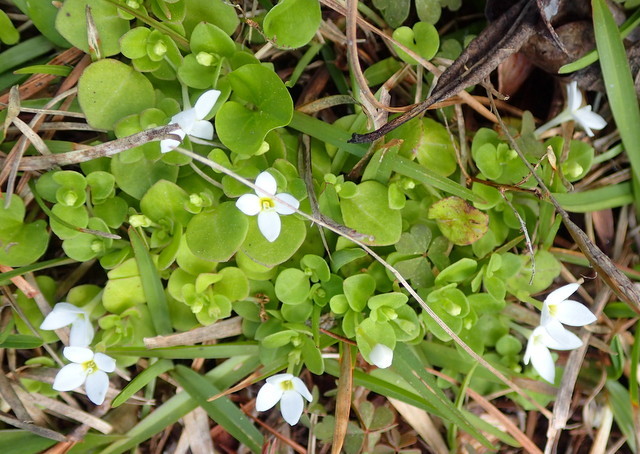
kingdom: Plantae
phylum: Tracheophyta
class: Magnoliopsida
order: Gentianales
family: Rubiaceae
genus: Houstonia
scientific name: Houstonia procumbens
